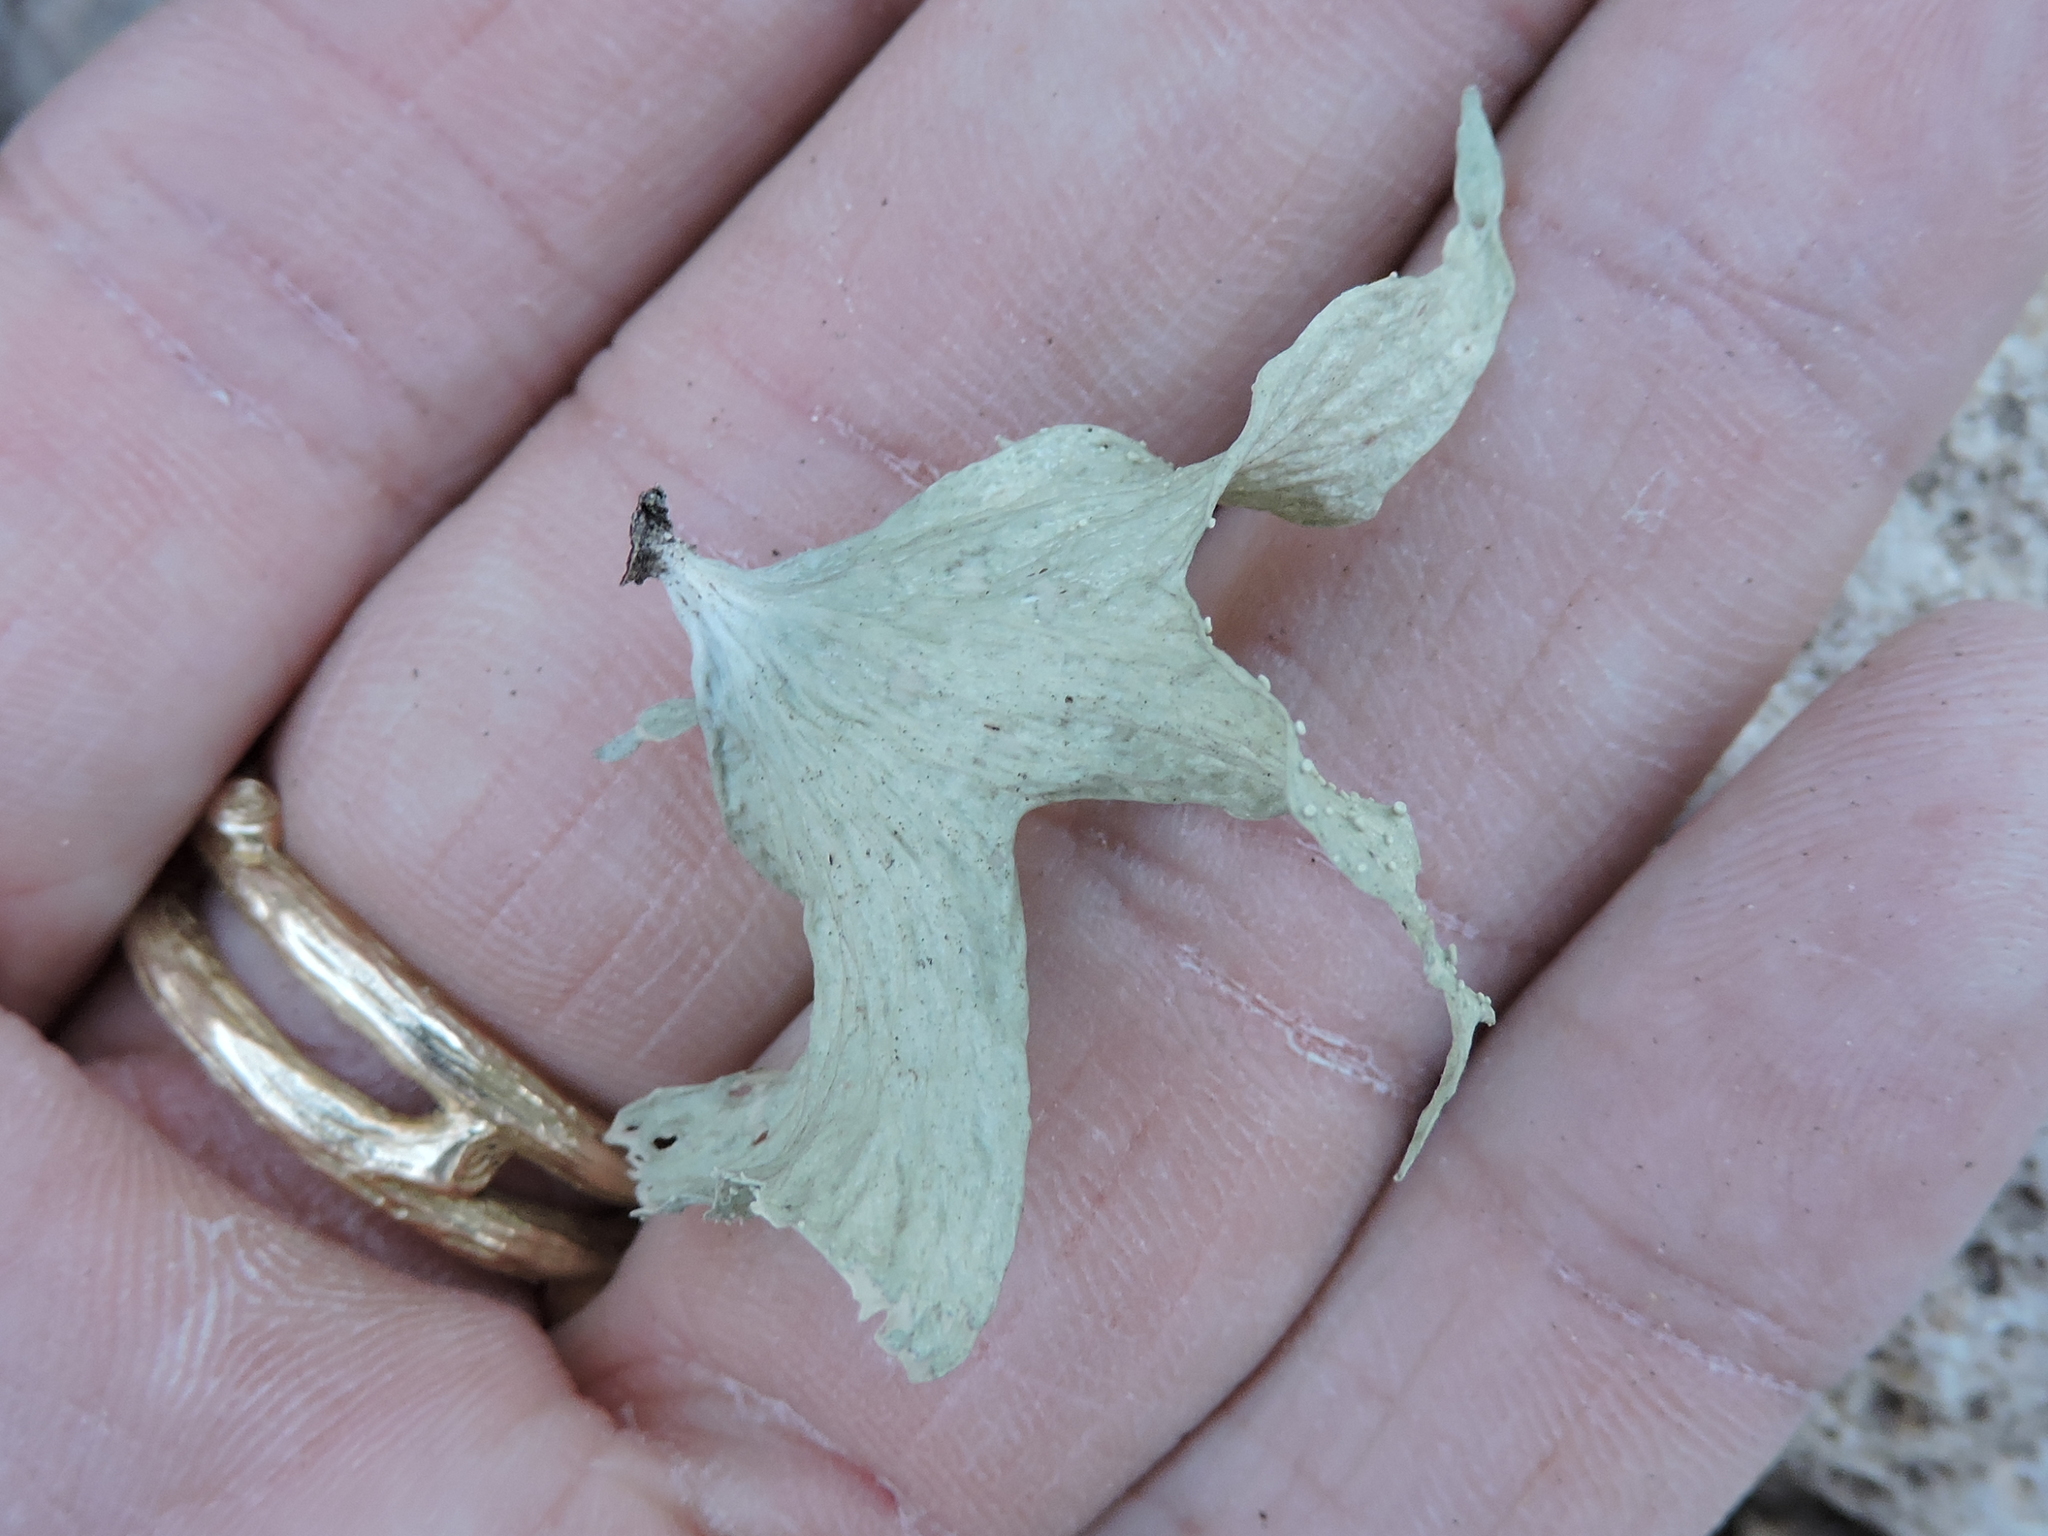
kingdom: Fungi
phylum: Ascomycota
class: Lecanoromycetes
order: Lecanorales
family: Ramalinaceae
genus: Ramalina
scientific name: Ramalina celastri
